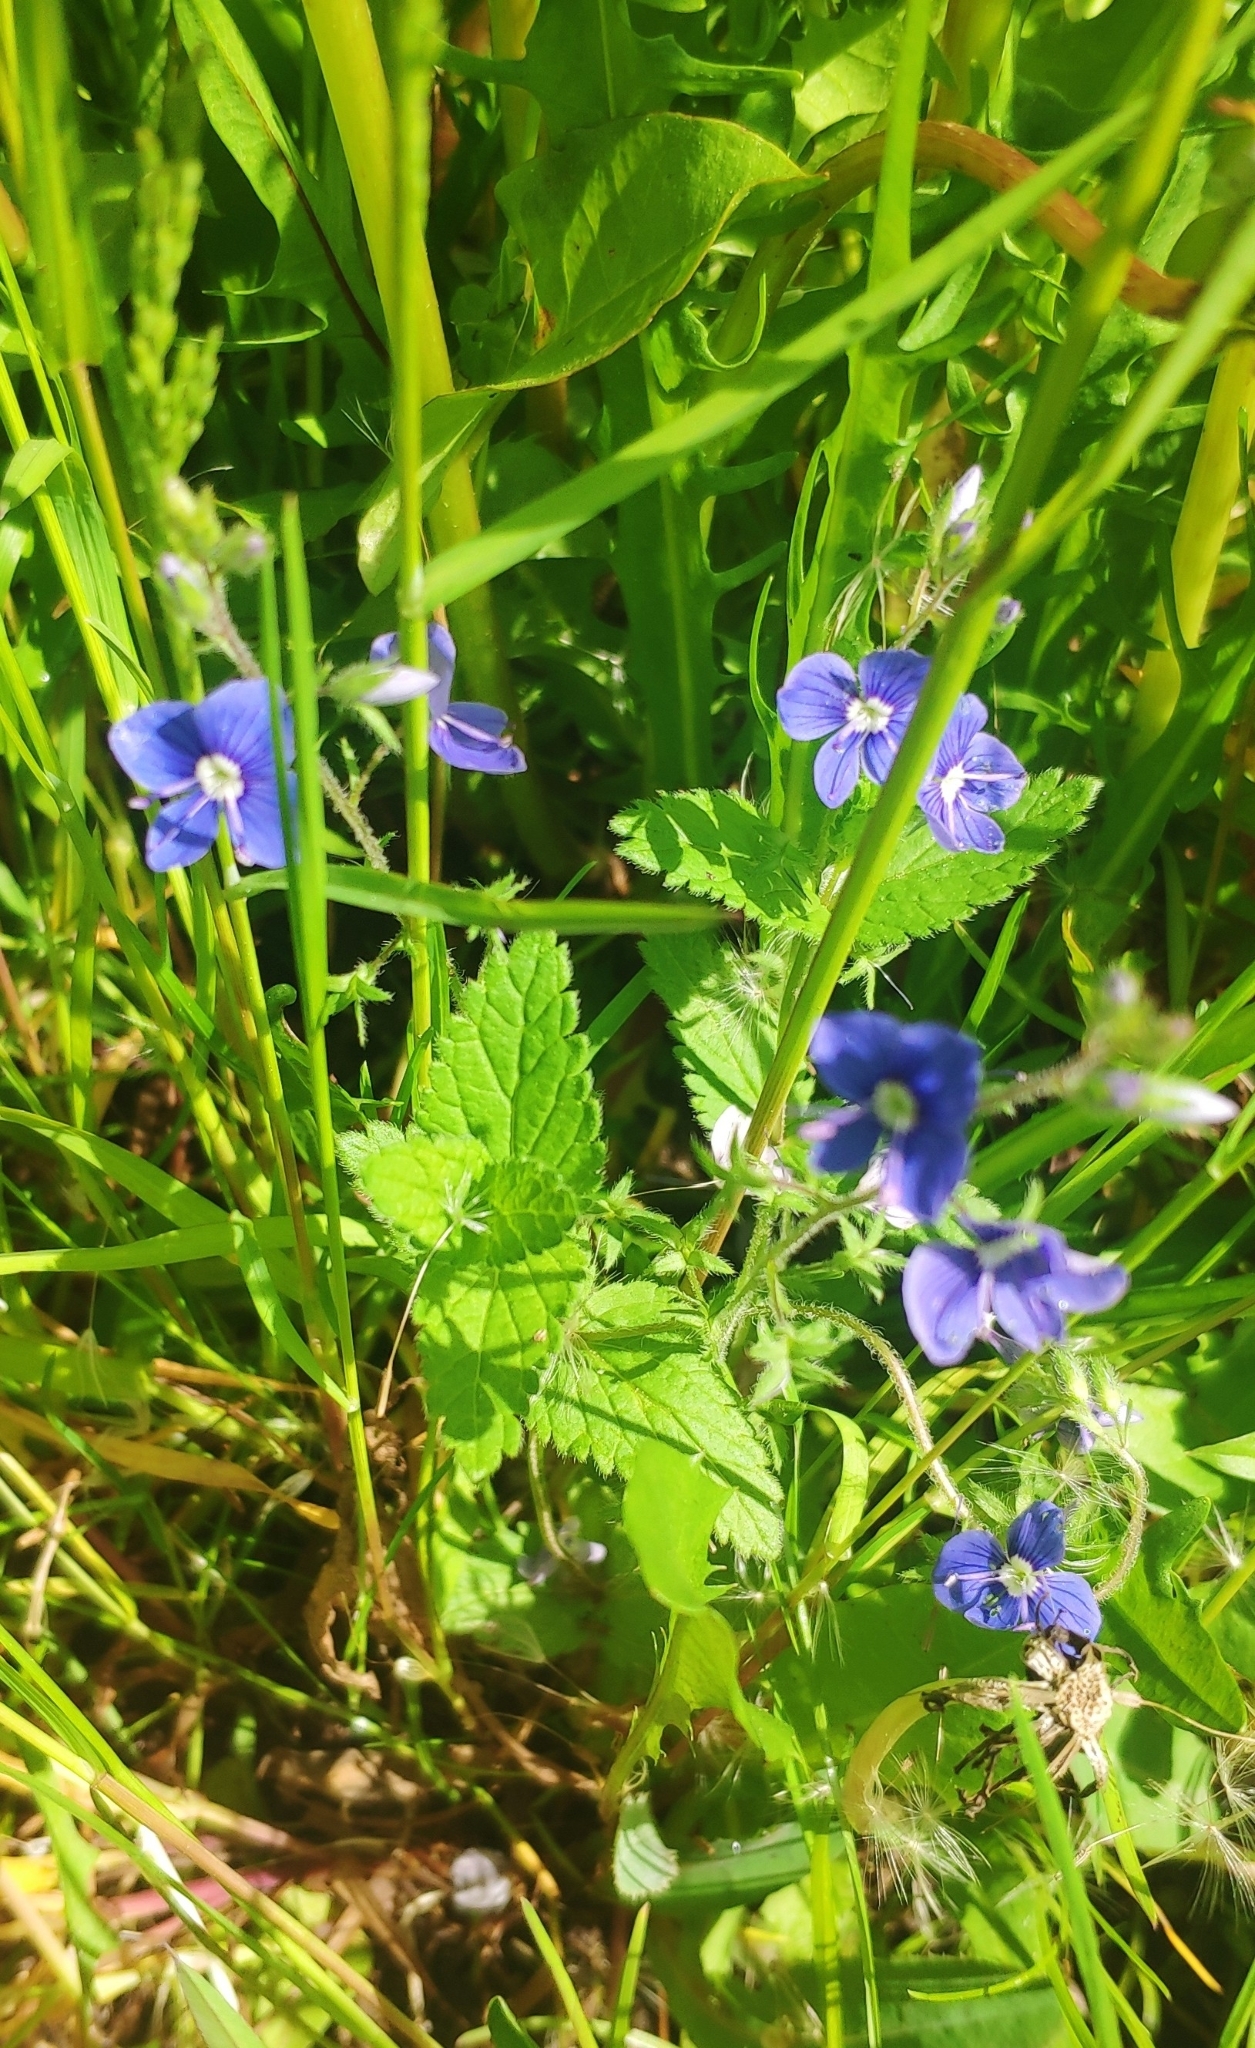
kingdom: Plantae
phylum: Tracheophyta
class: Magnoliopsida
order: Lamiales
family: Plantaginaceae
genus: Veronica
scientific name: Veronica chamaedrys
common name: Germander speedwell
